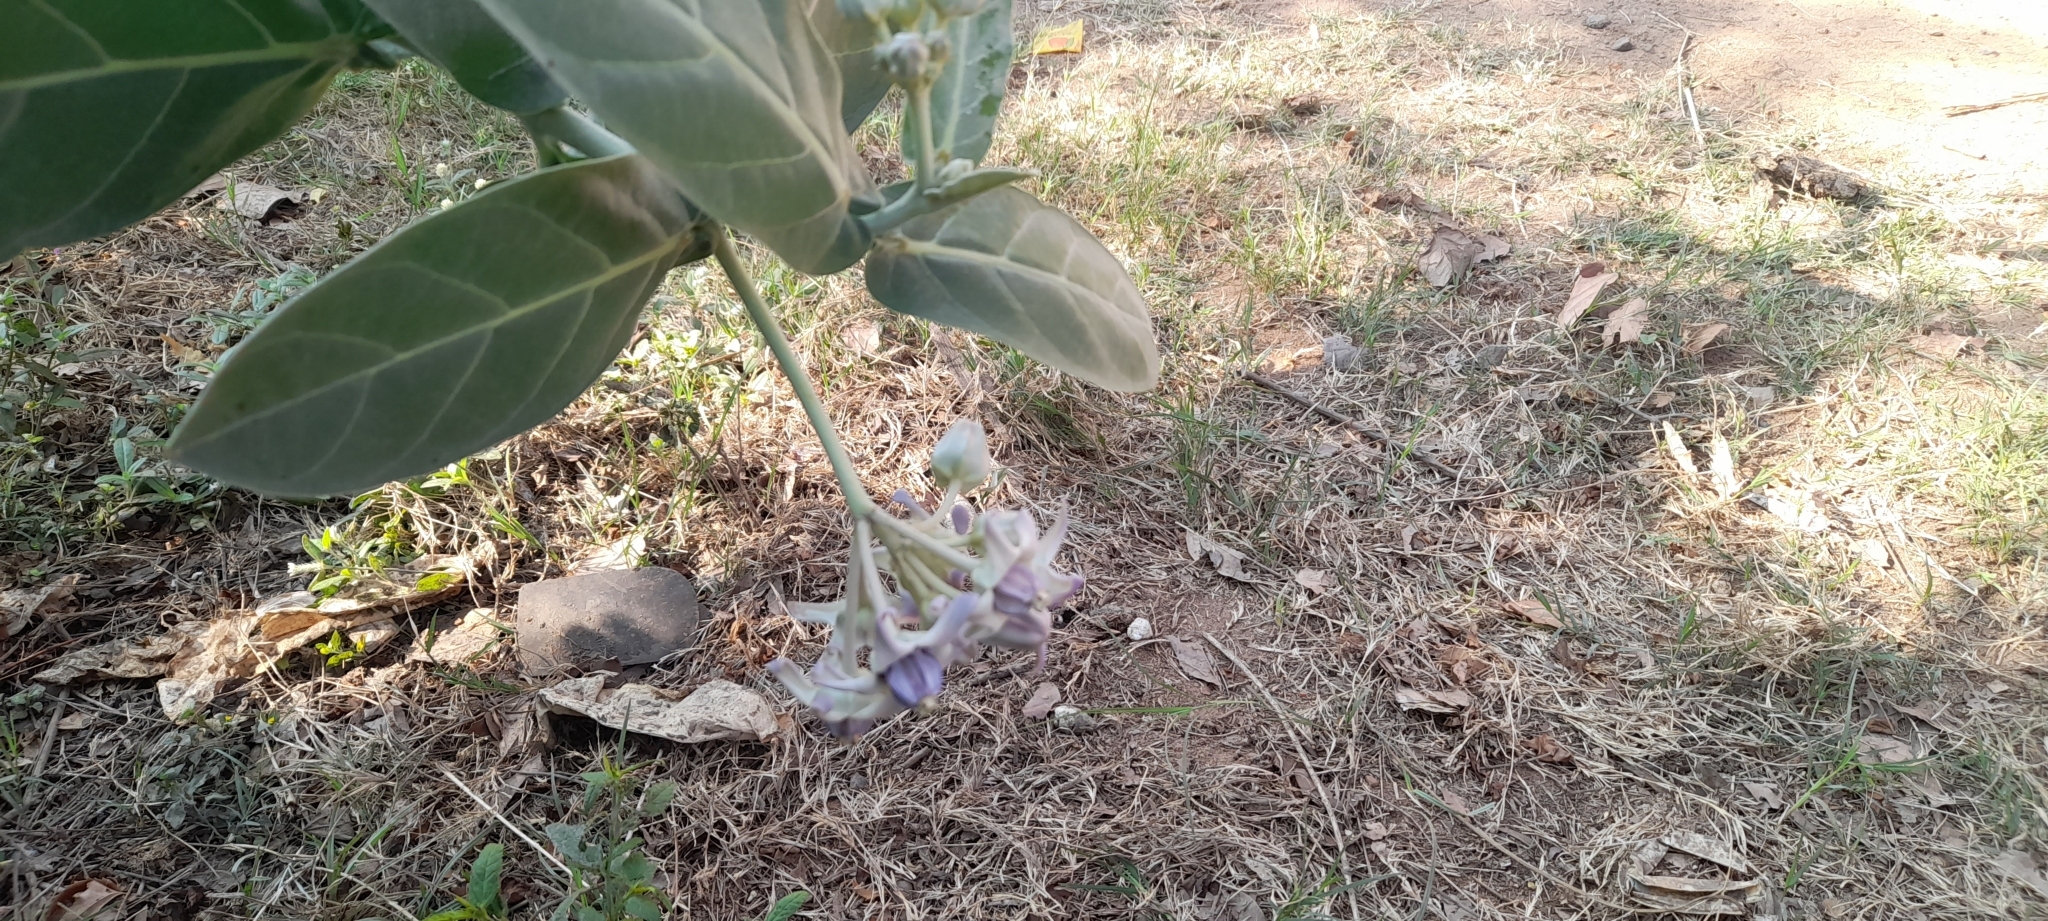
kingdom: Plantae
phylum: Tracheophyta
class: Magnoliopsida
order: Gentianales
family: Apocynaceae
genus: Calotropis
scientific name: Calotropis gigantea
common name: Crown flower
